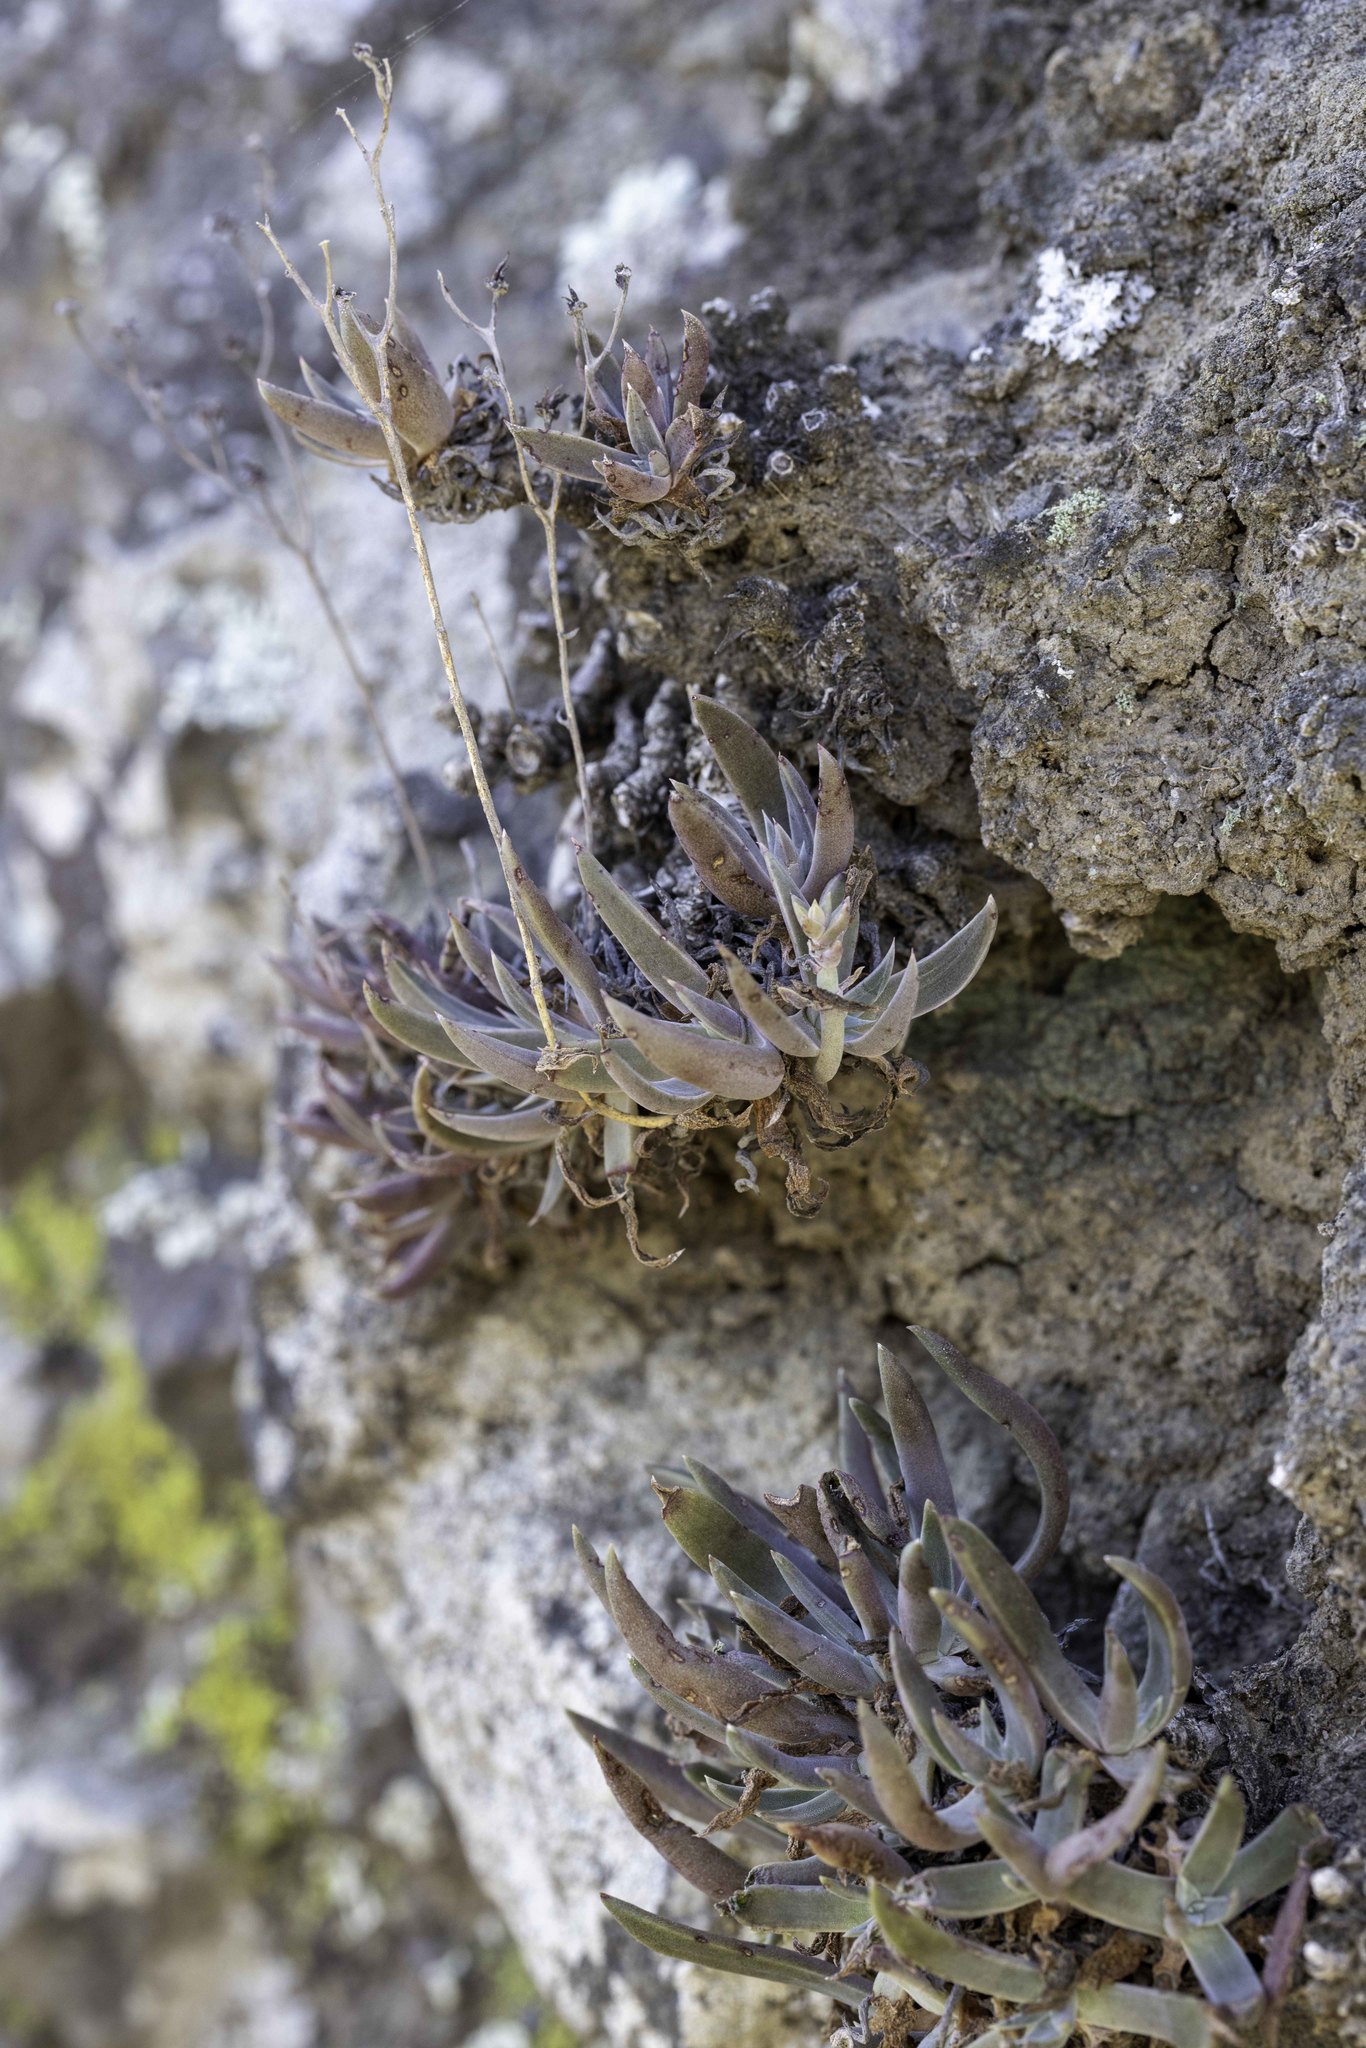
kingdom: Plantae
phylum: Tracheophyta
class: Magnoliopsida
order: Saxifragales
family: Crassulaceae
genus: Dudleya
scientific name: Dudleya verityi
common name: Verity dudleya
